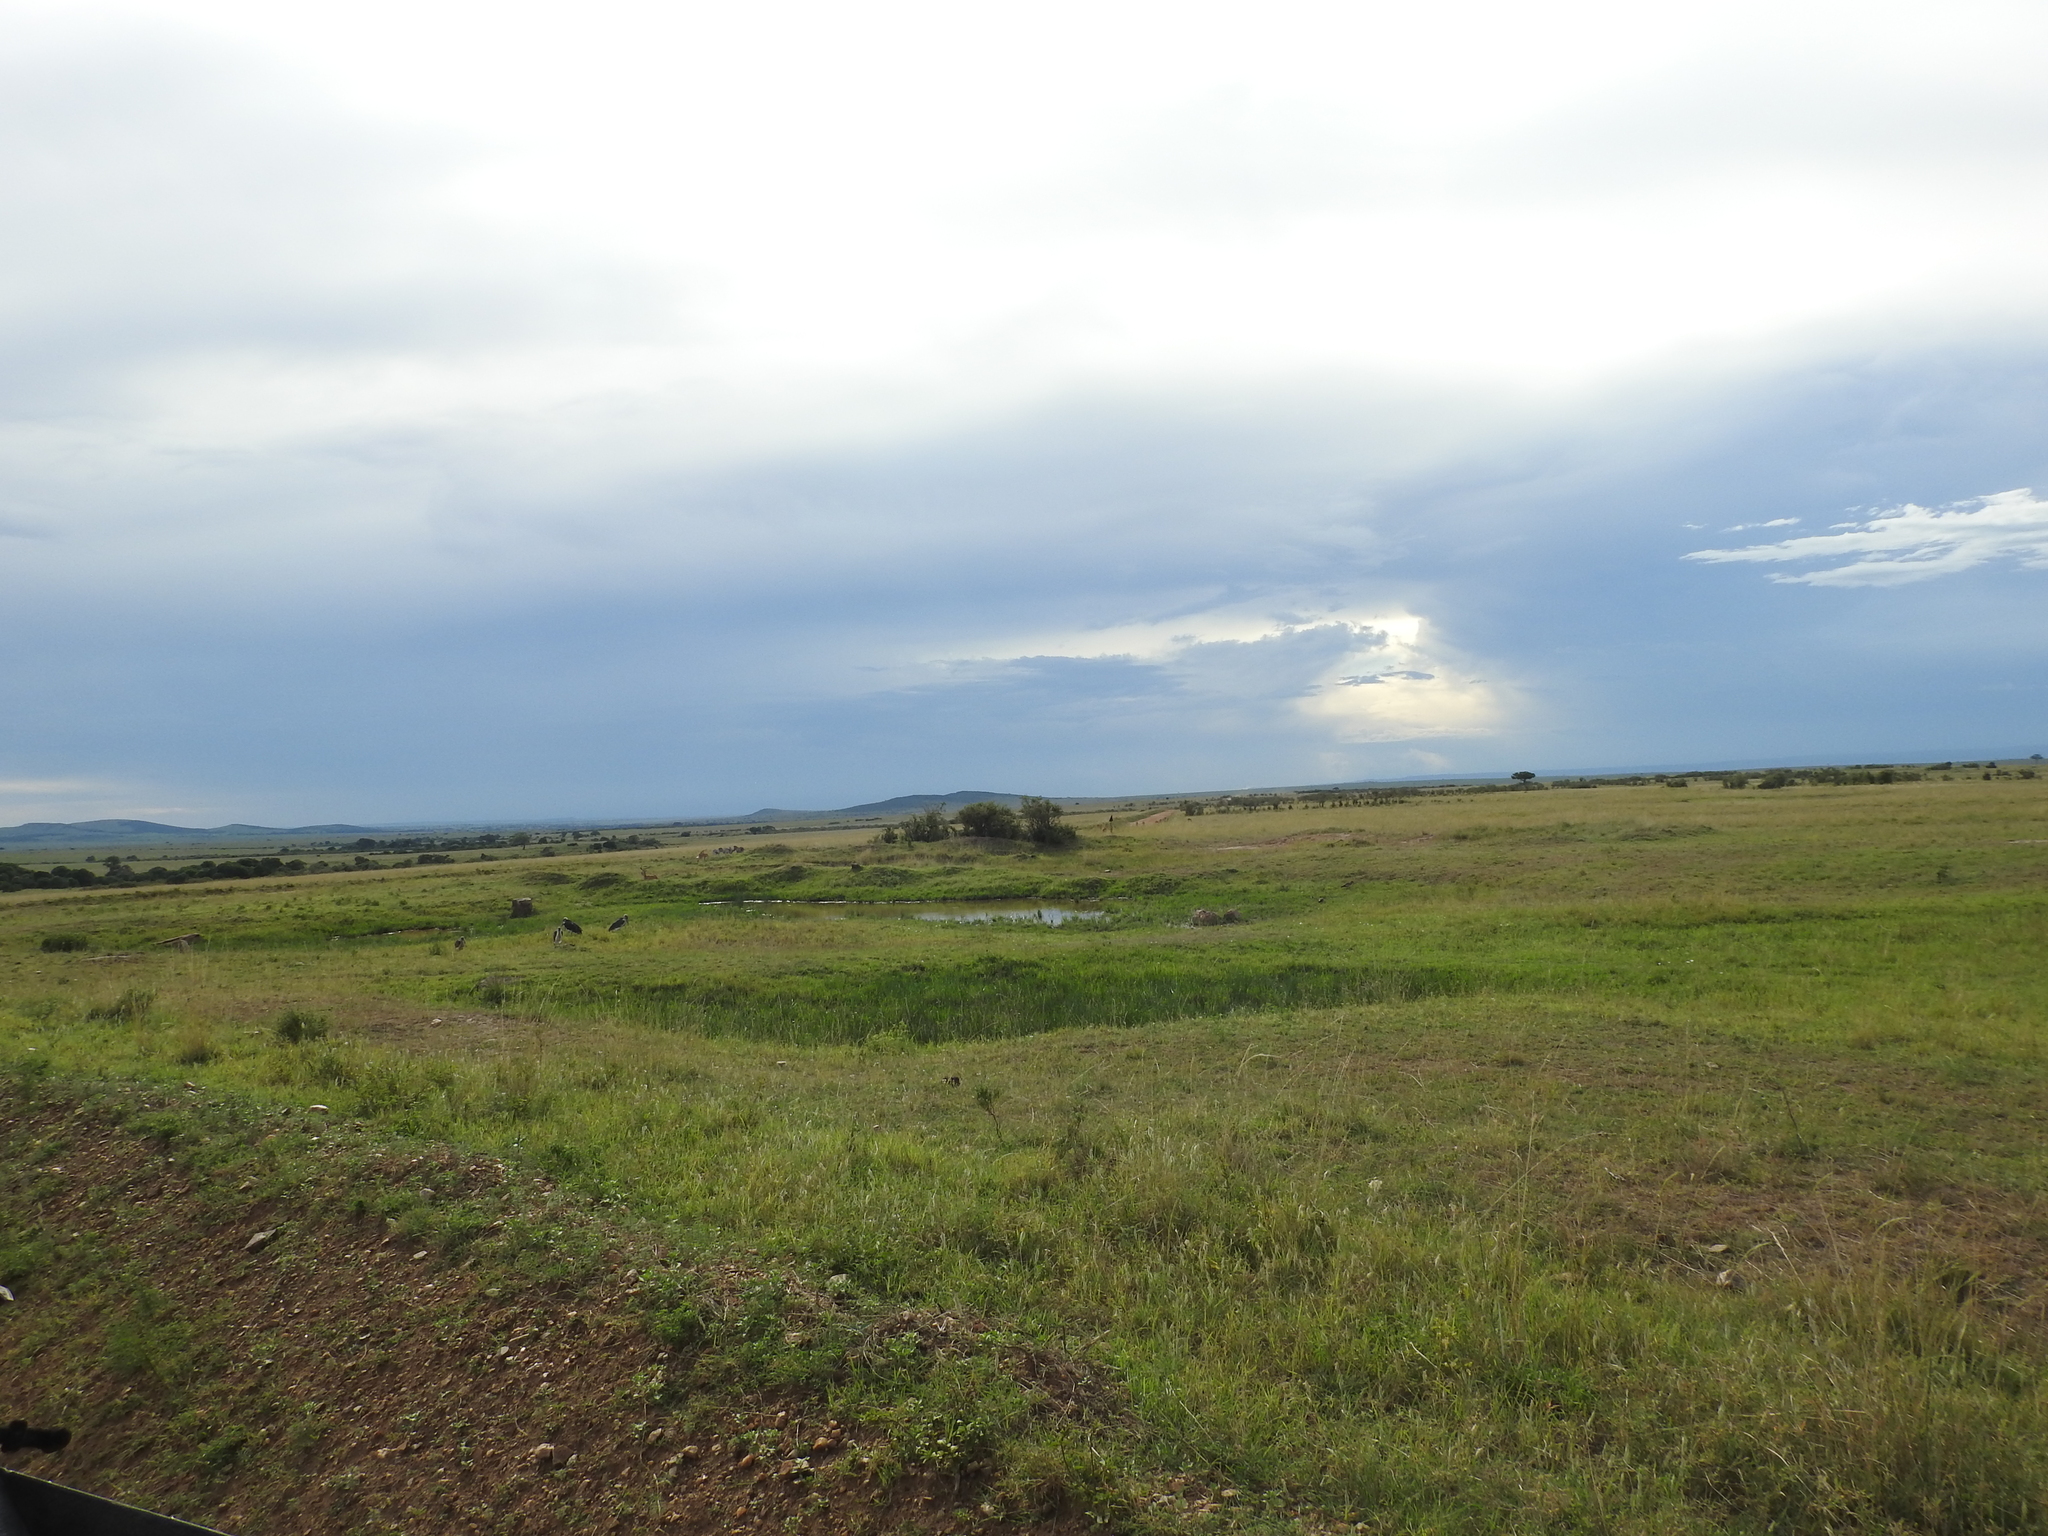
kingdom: Animalia
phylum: Chordata
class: Mammalia
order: Artiodactyla
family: Bovidae
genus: Aepyceros
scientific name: Aepyceros melampus
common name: Impala
